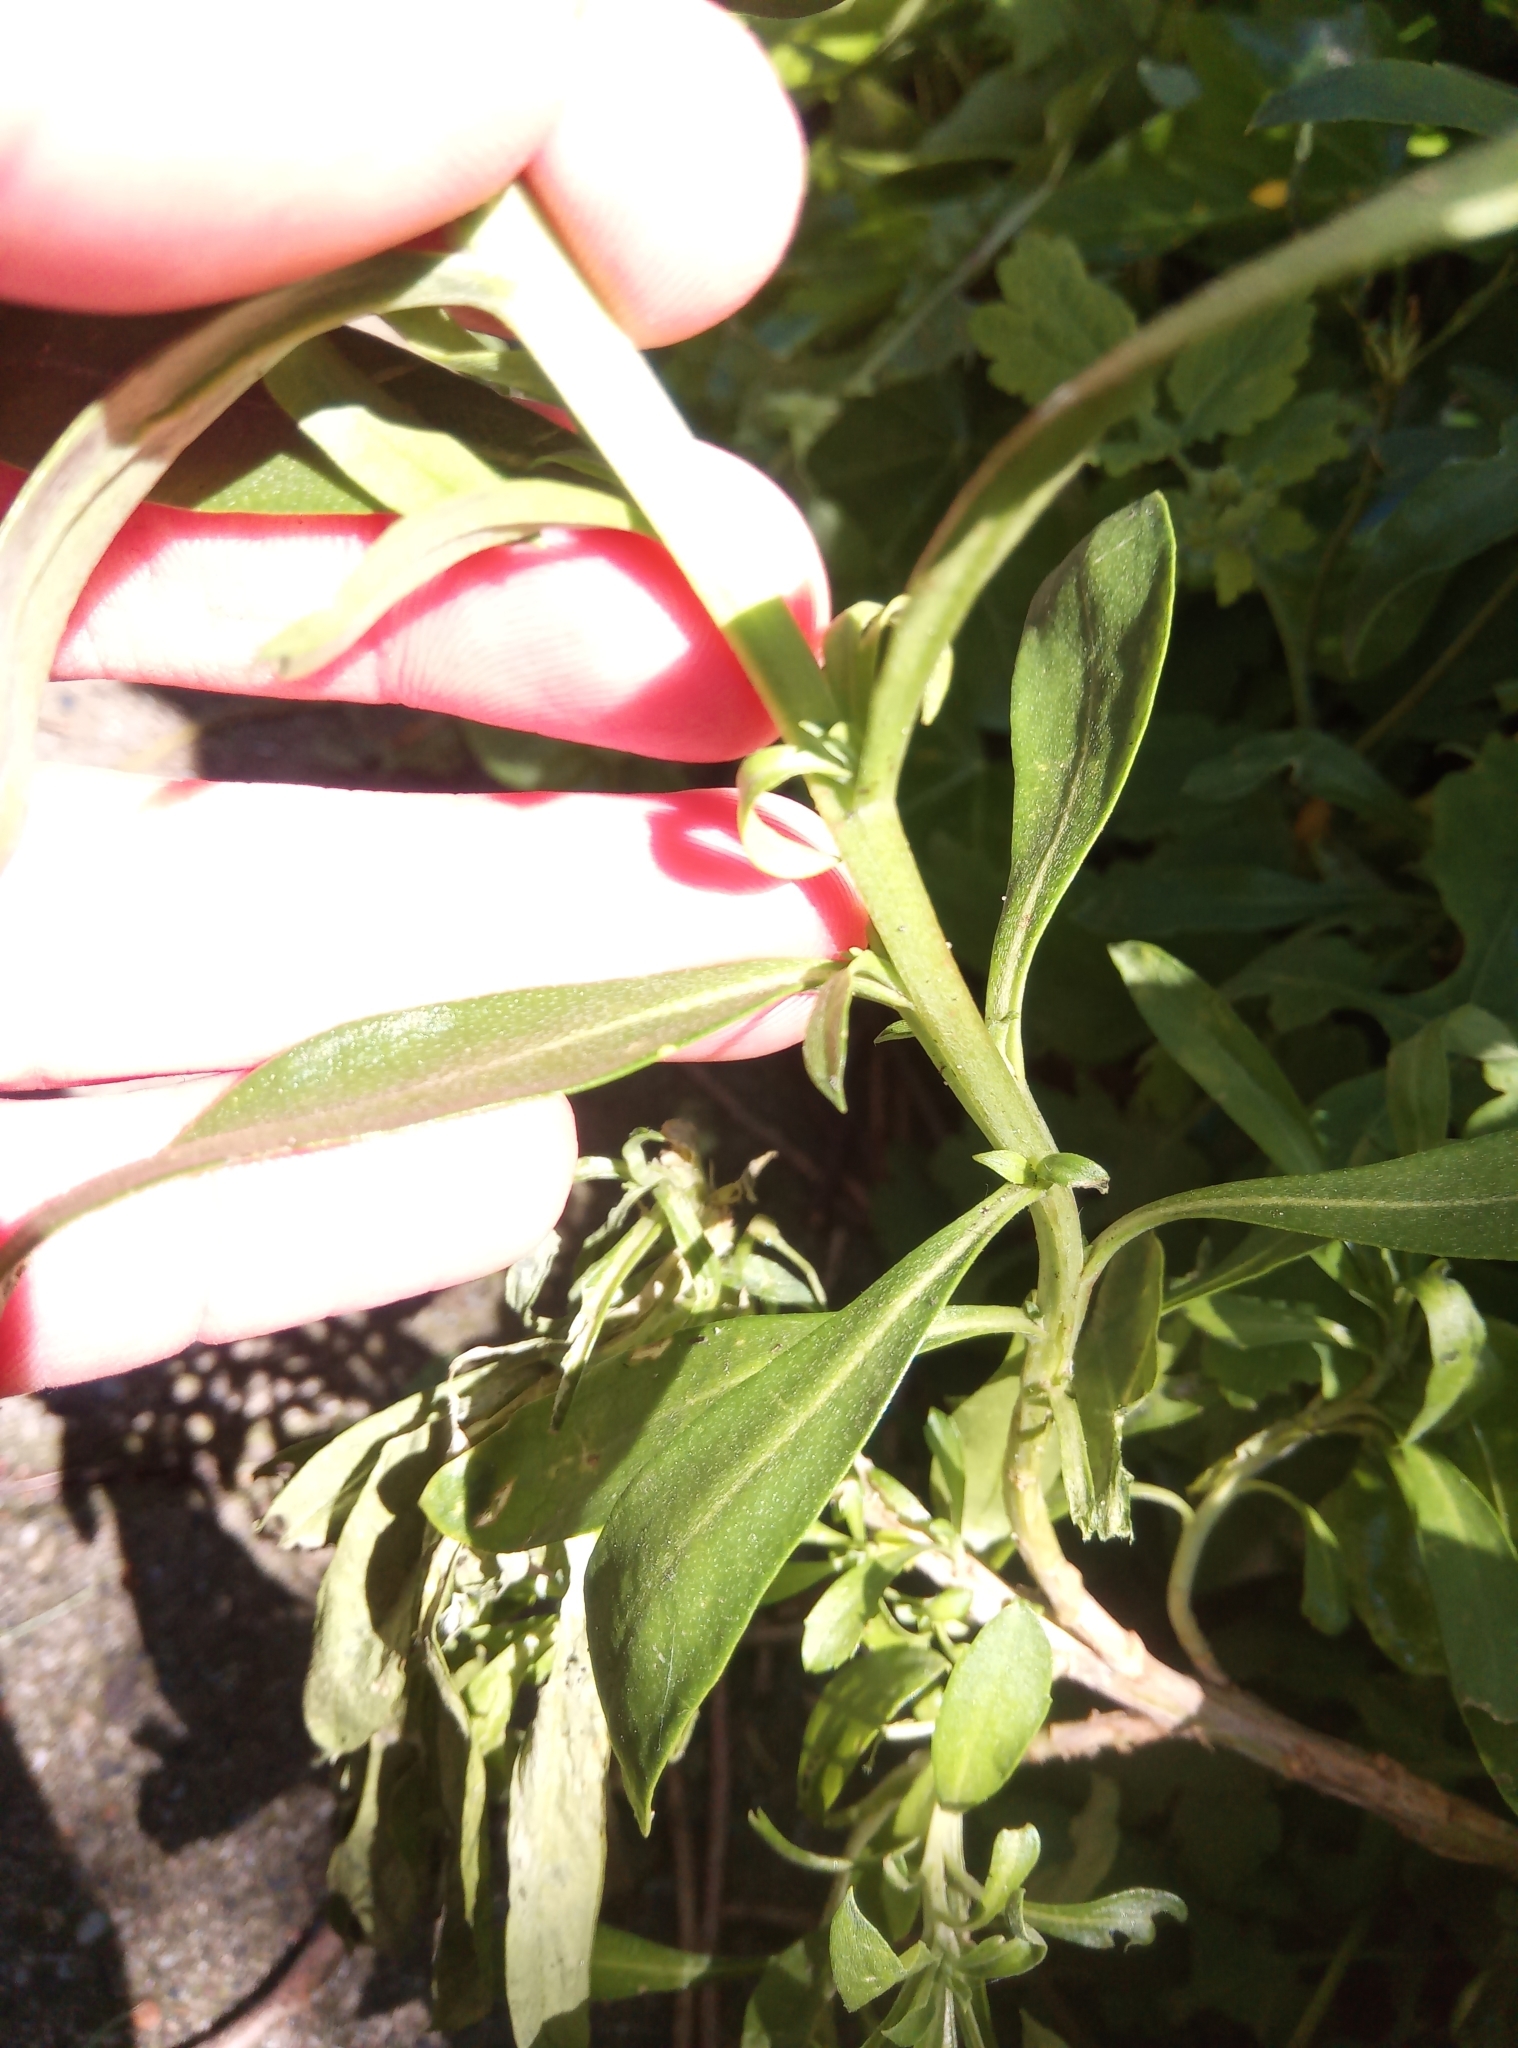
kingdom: Plantae
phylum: Tracheophyta
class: Magnoliopsida
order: Brassicales
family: Brassicaceae
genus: Erysimum
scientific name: Erysimum cheiri
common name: Wallflower
